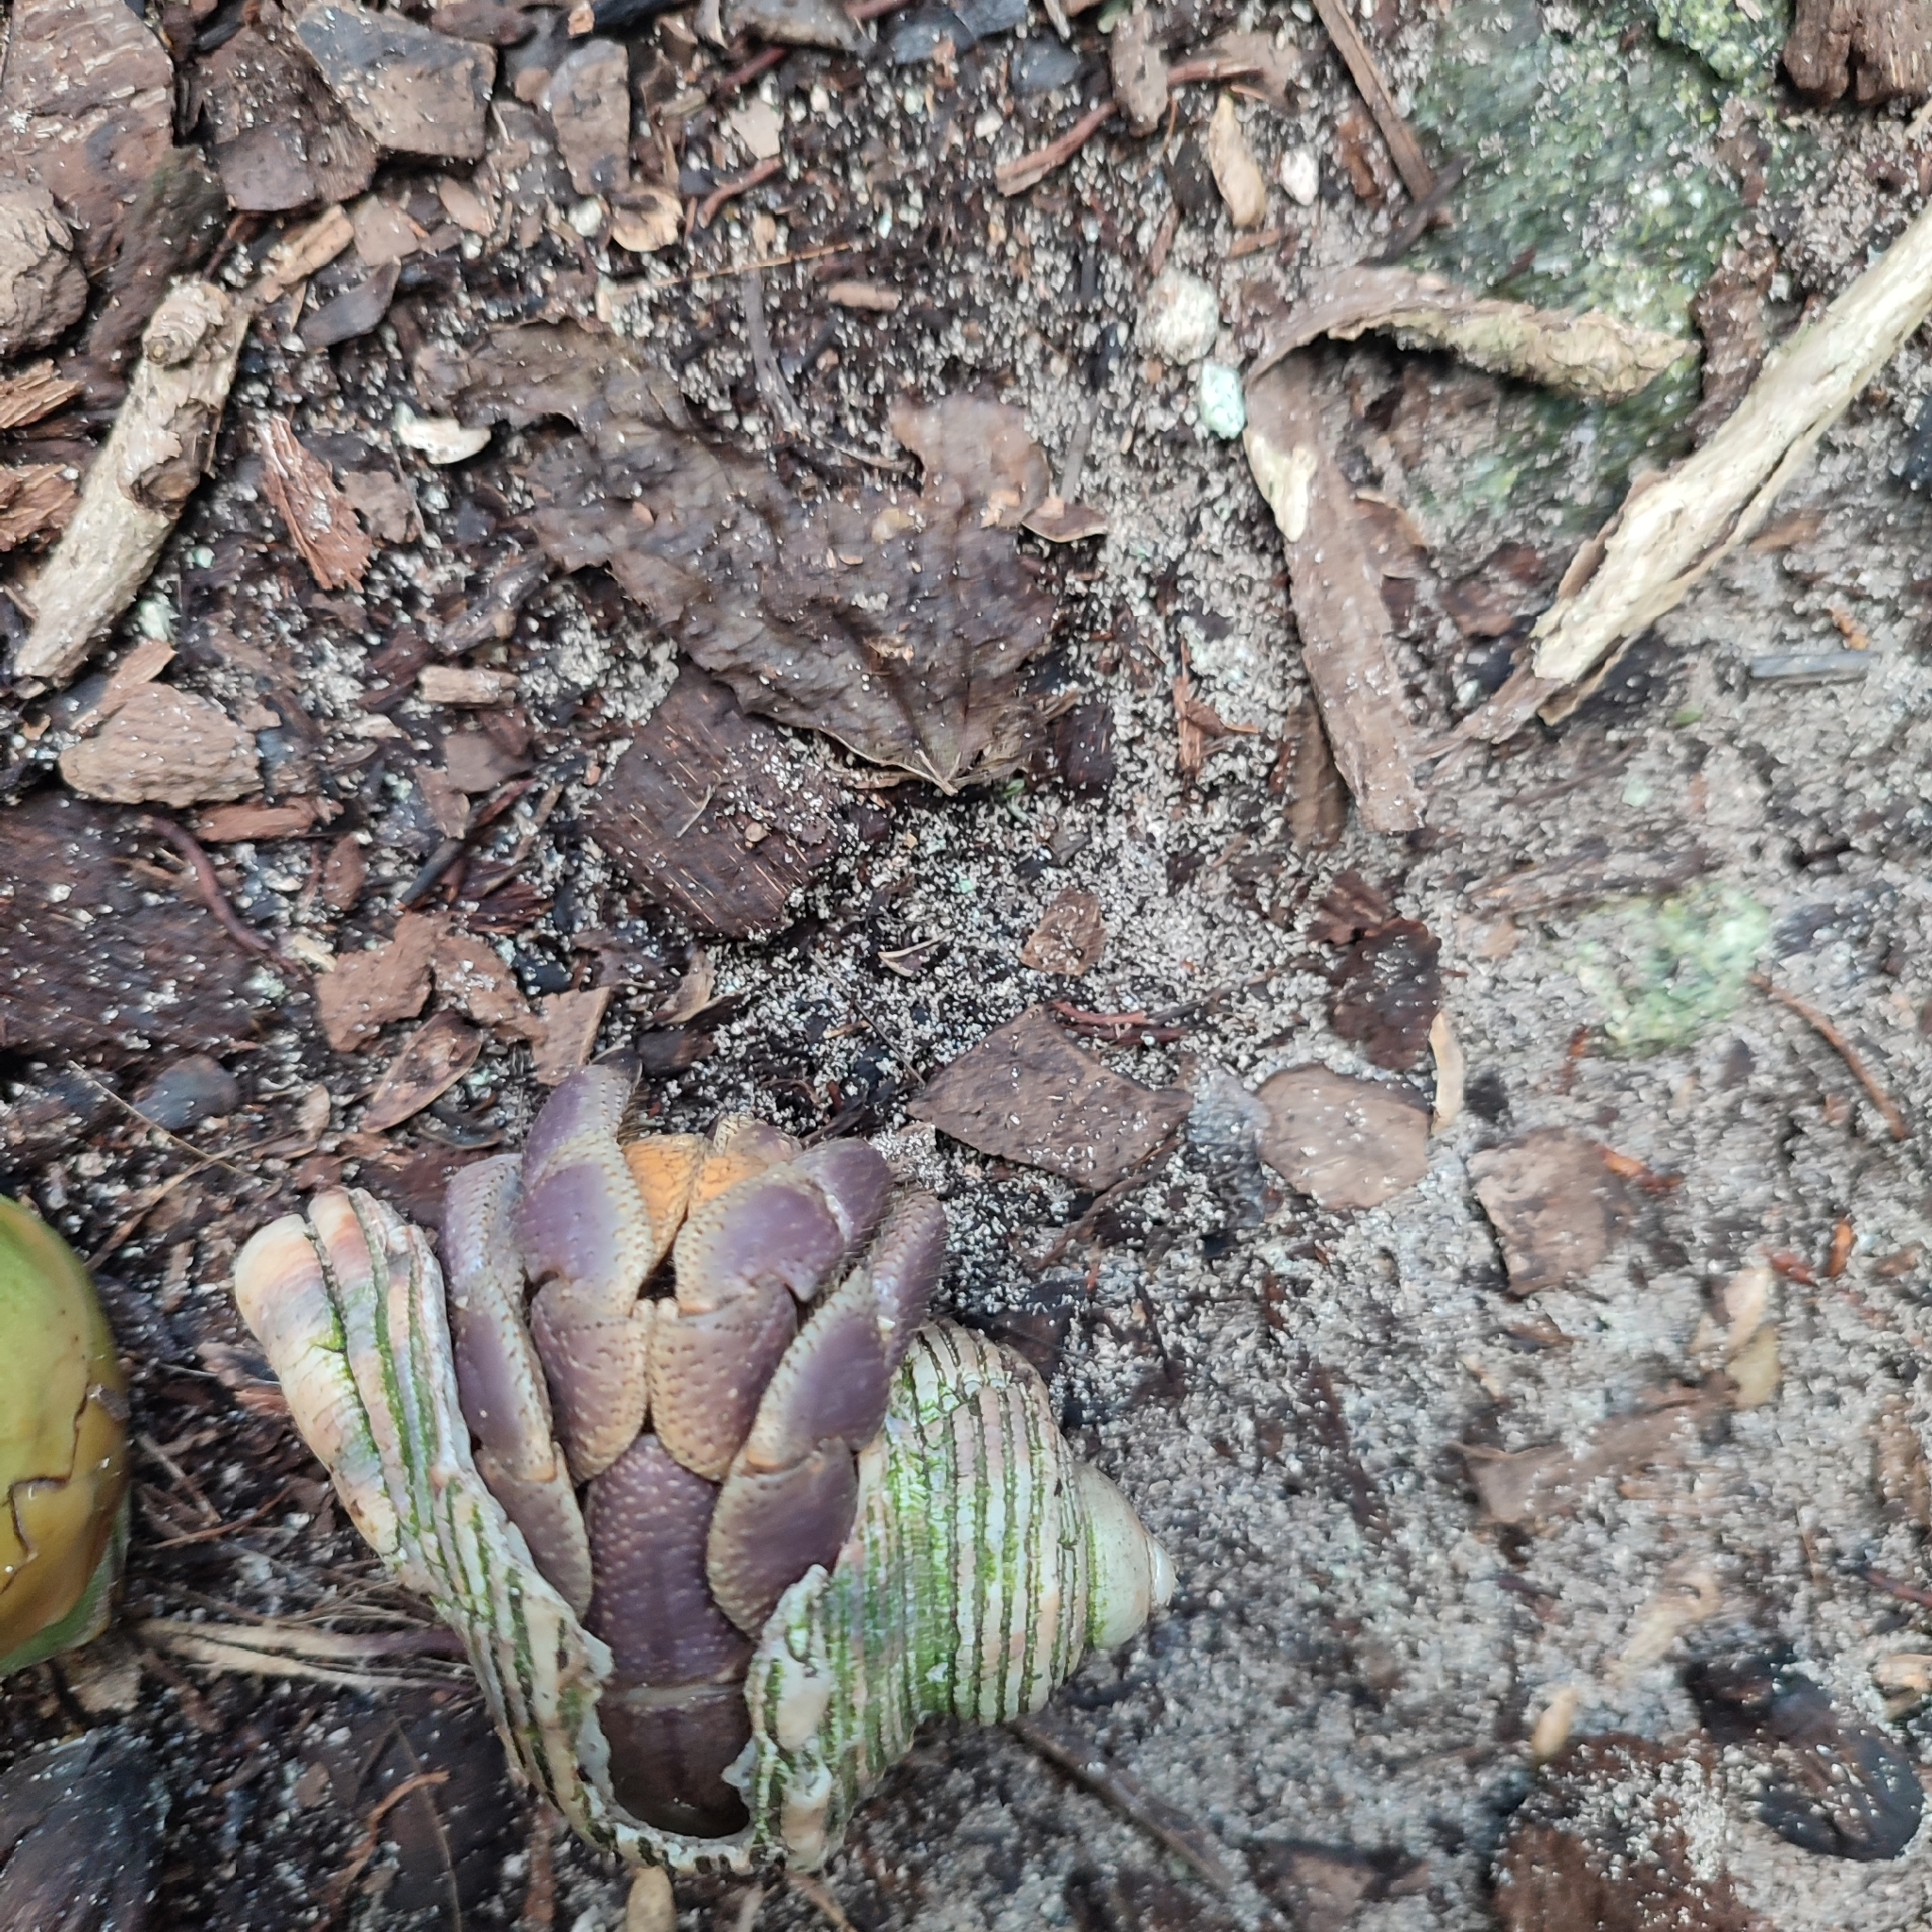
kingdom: Animalia
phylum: Arthropoda
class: Malacostraca
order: Decapoda
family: Coenobitidae
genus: Coenobita
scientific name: Coenobita brevimanus
